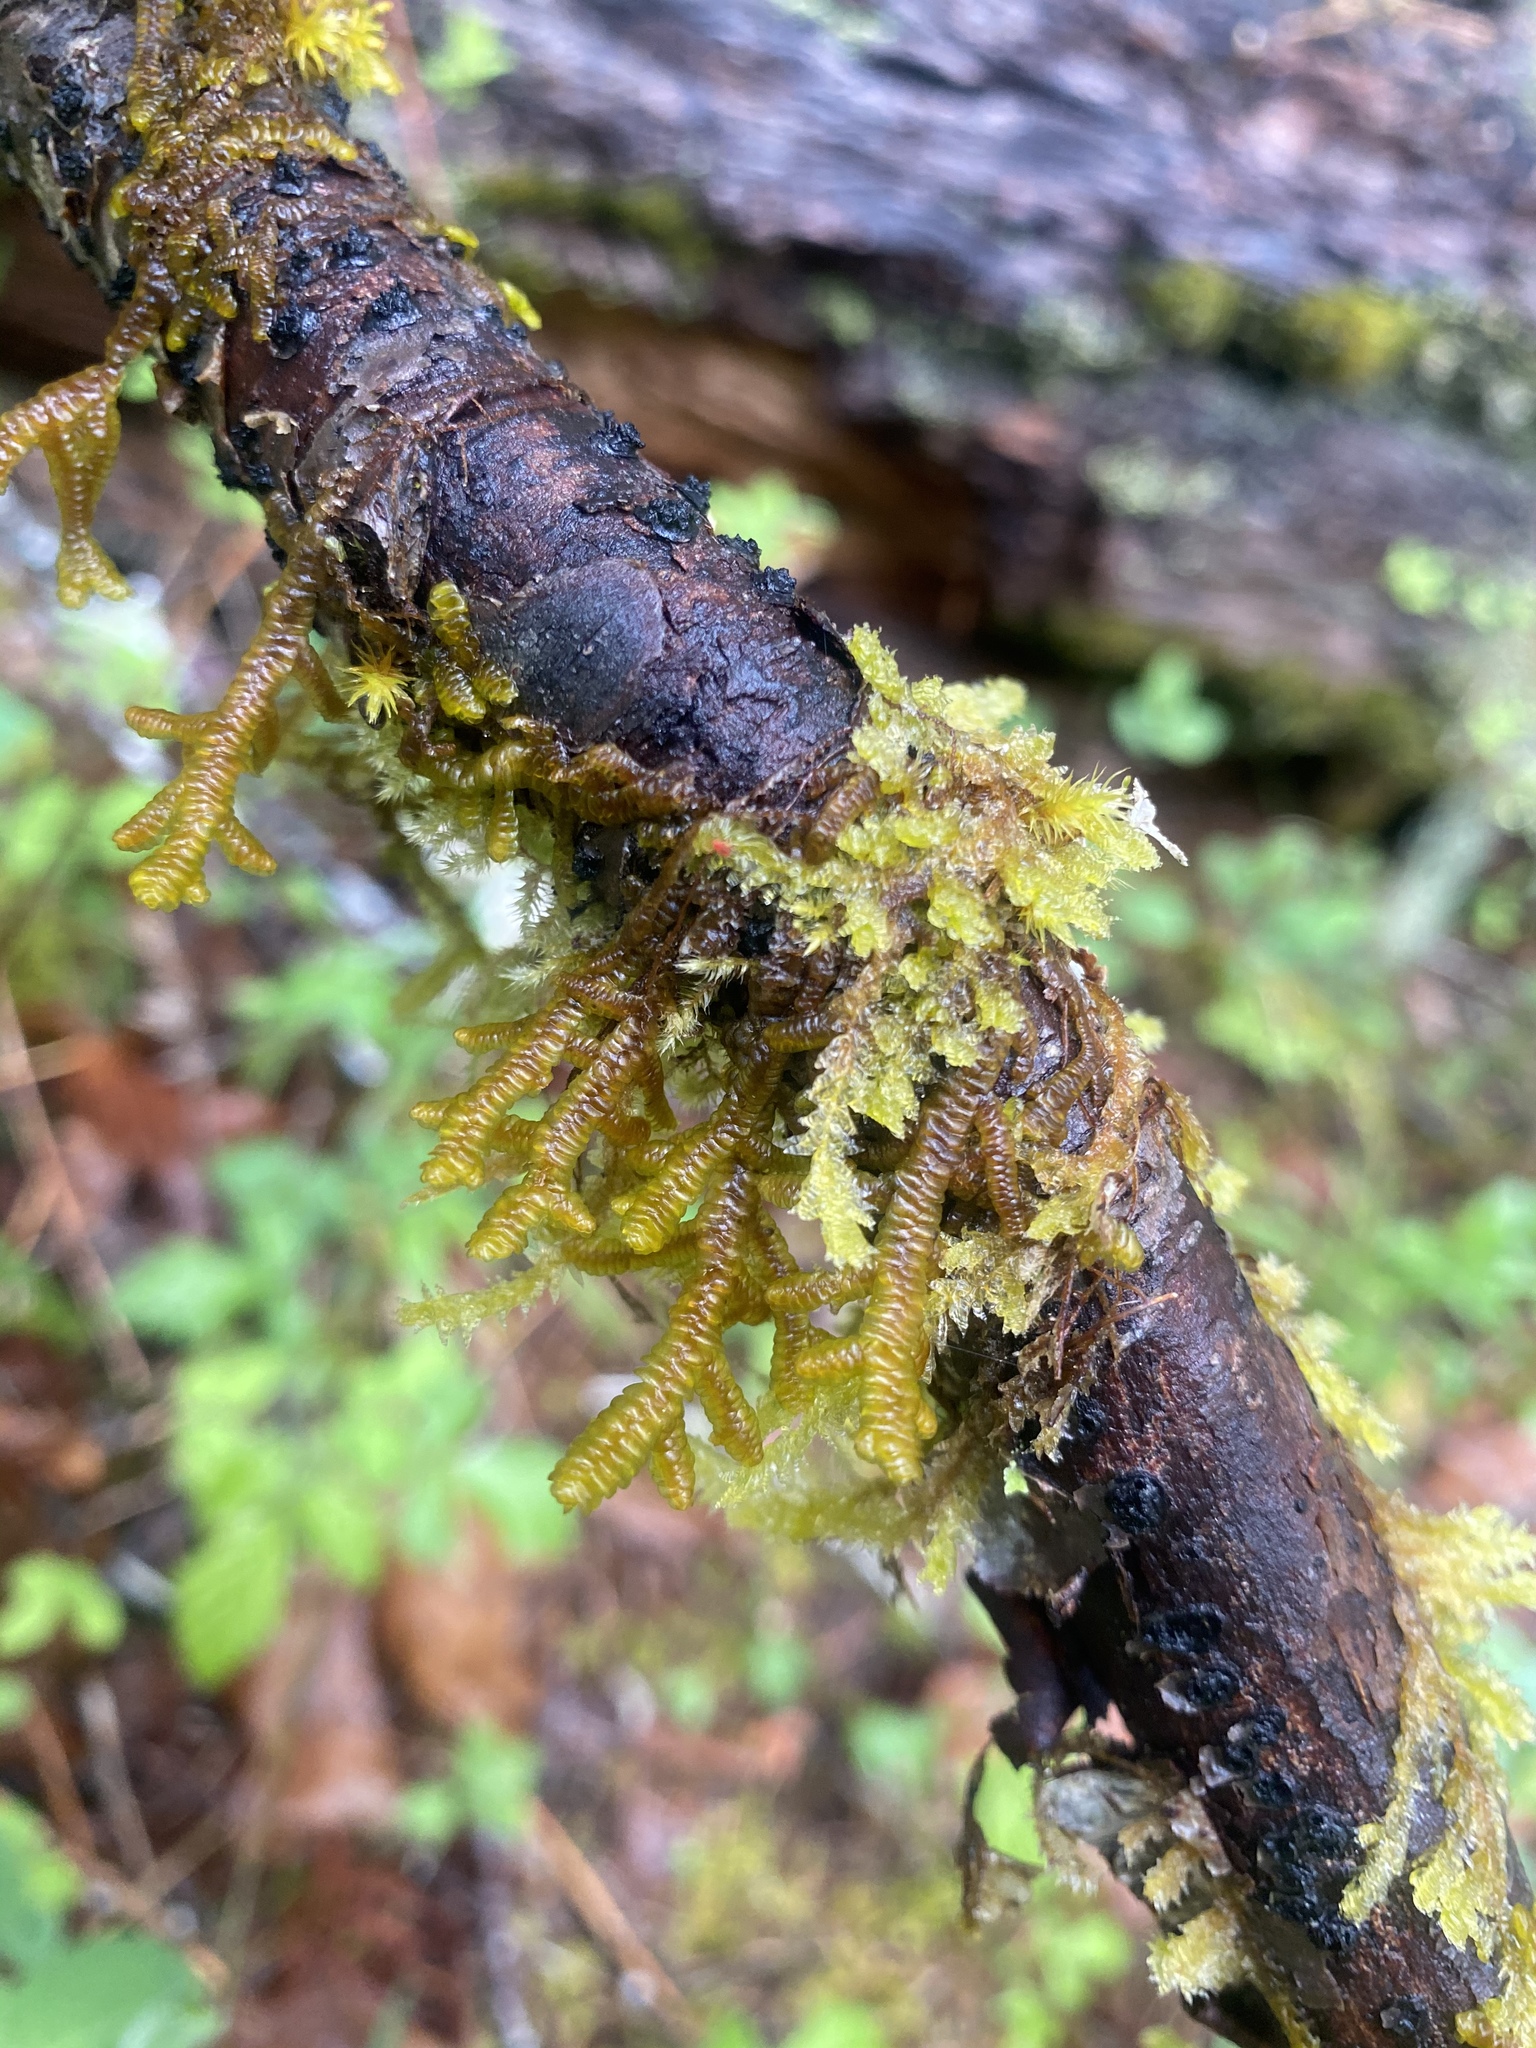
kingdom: Plantae
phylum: Marchantiophyta
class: Jungermanniopsida
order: Porellales
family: Porellaceae
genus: Porella
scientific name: Porella navicularis
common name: Tree ruffle liverwort
